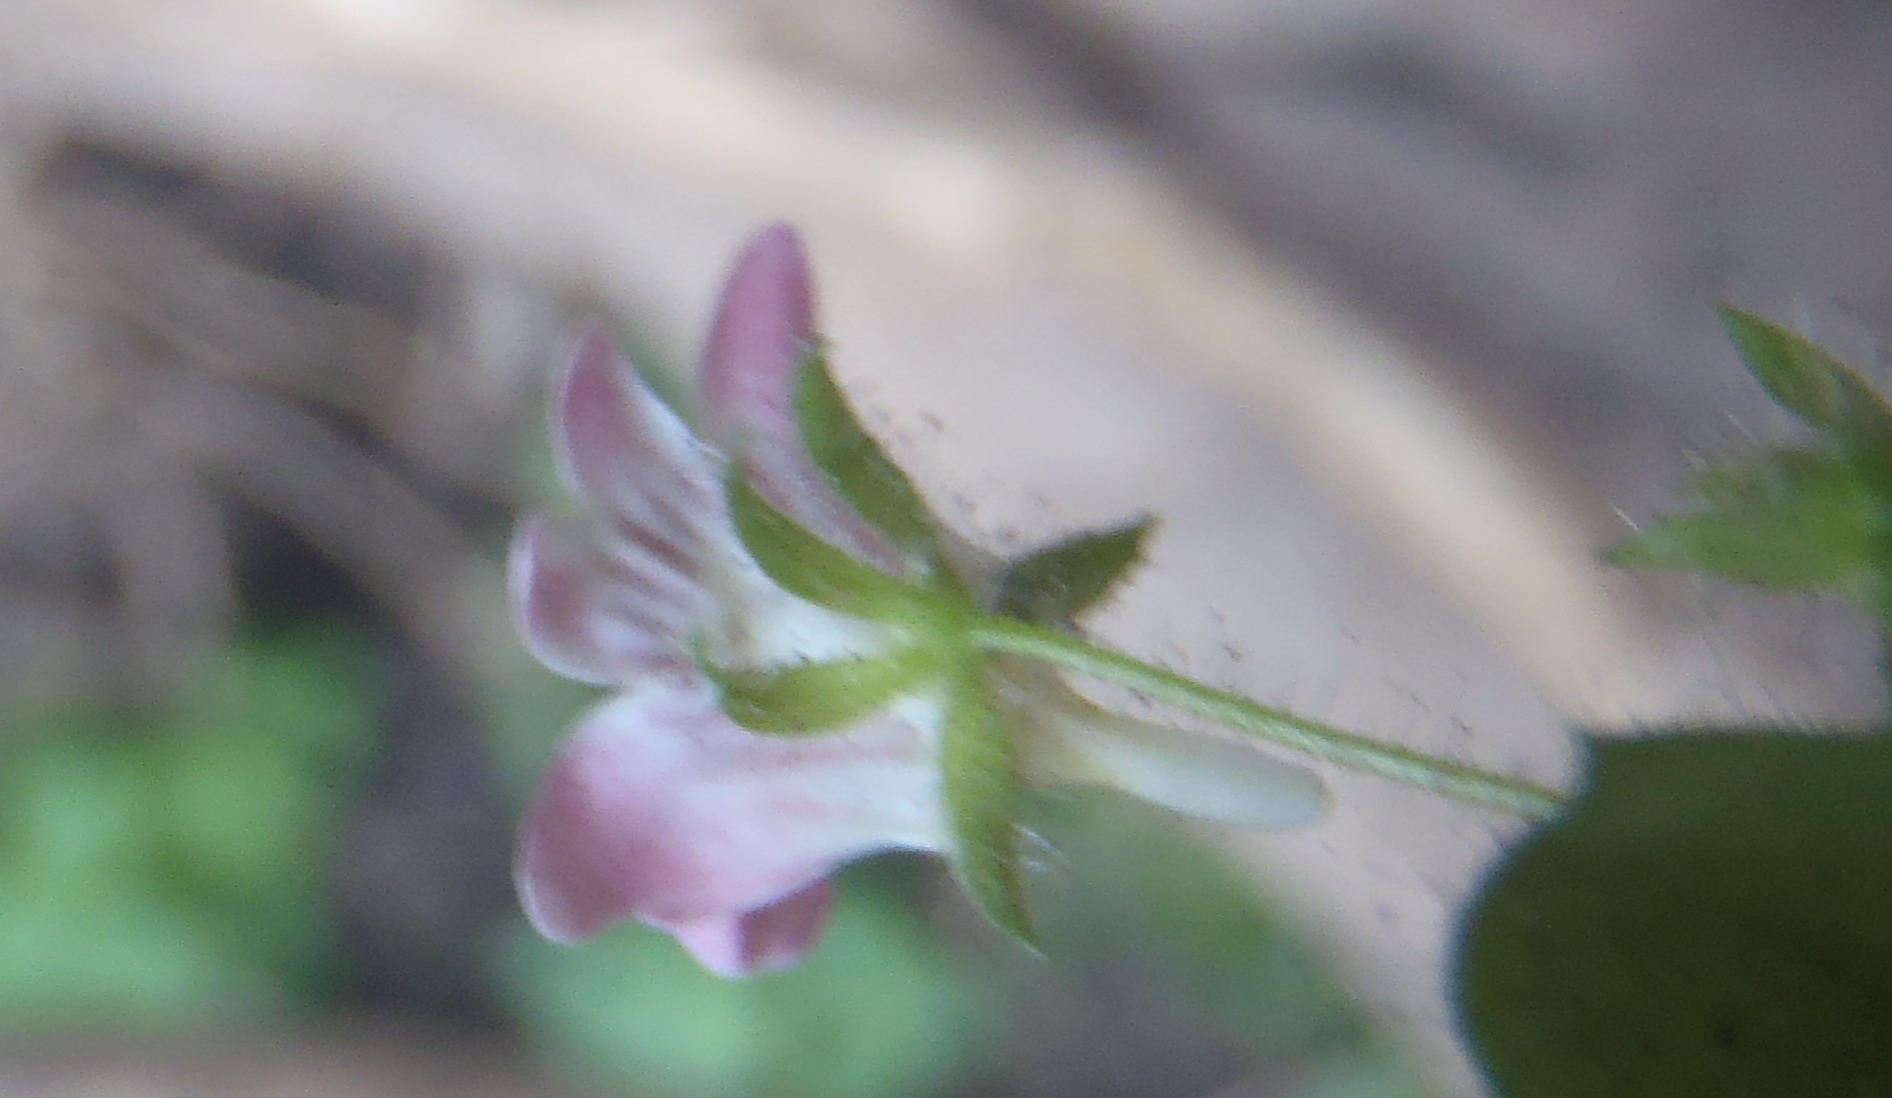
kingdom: Plantae
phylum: Tracheophyta
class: Magnoliopsida
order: Lamiales
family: Scrophulariaceae
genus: Nemesia
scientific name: Nemesia deflexa
